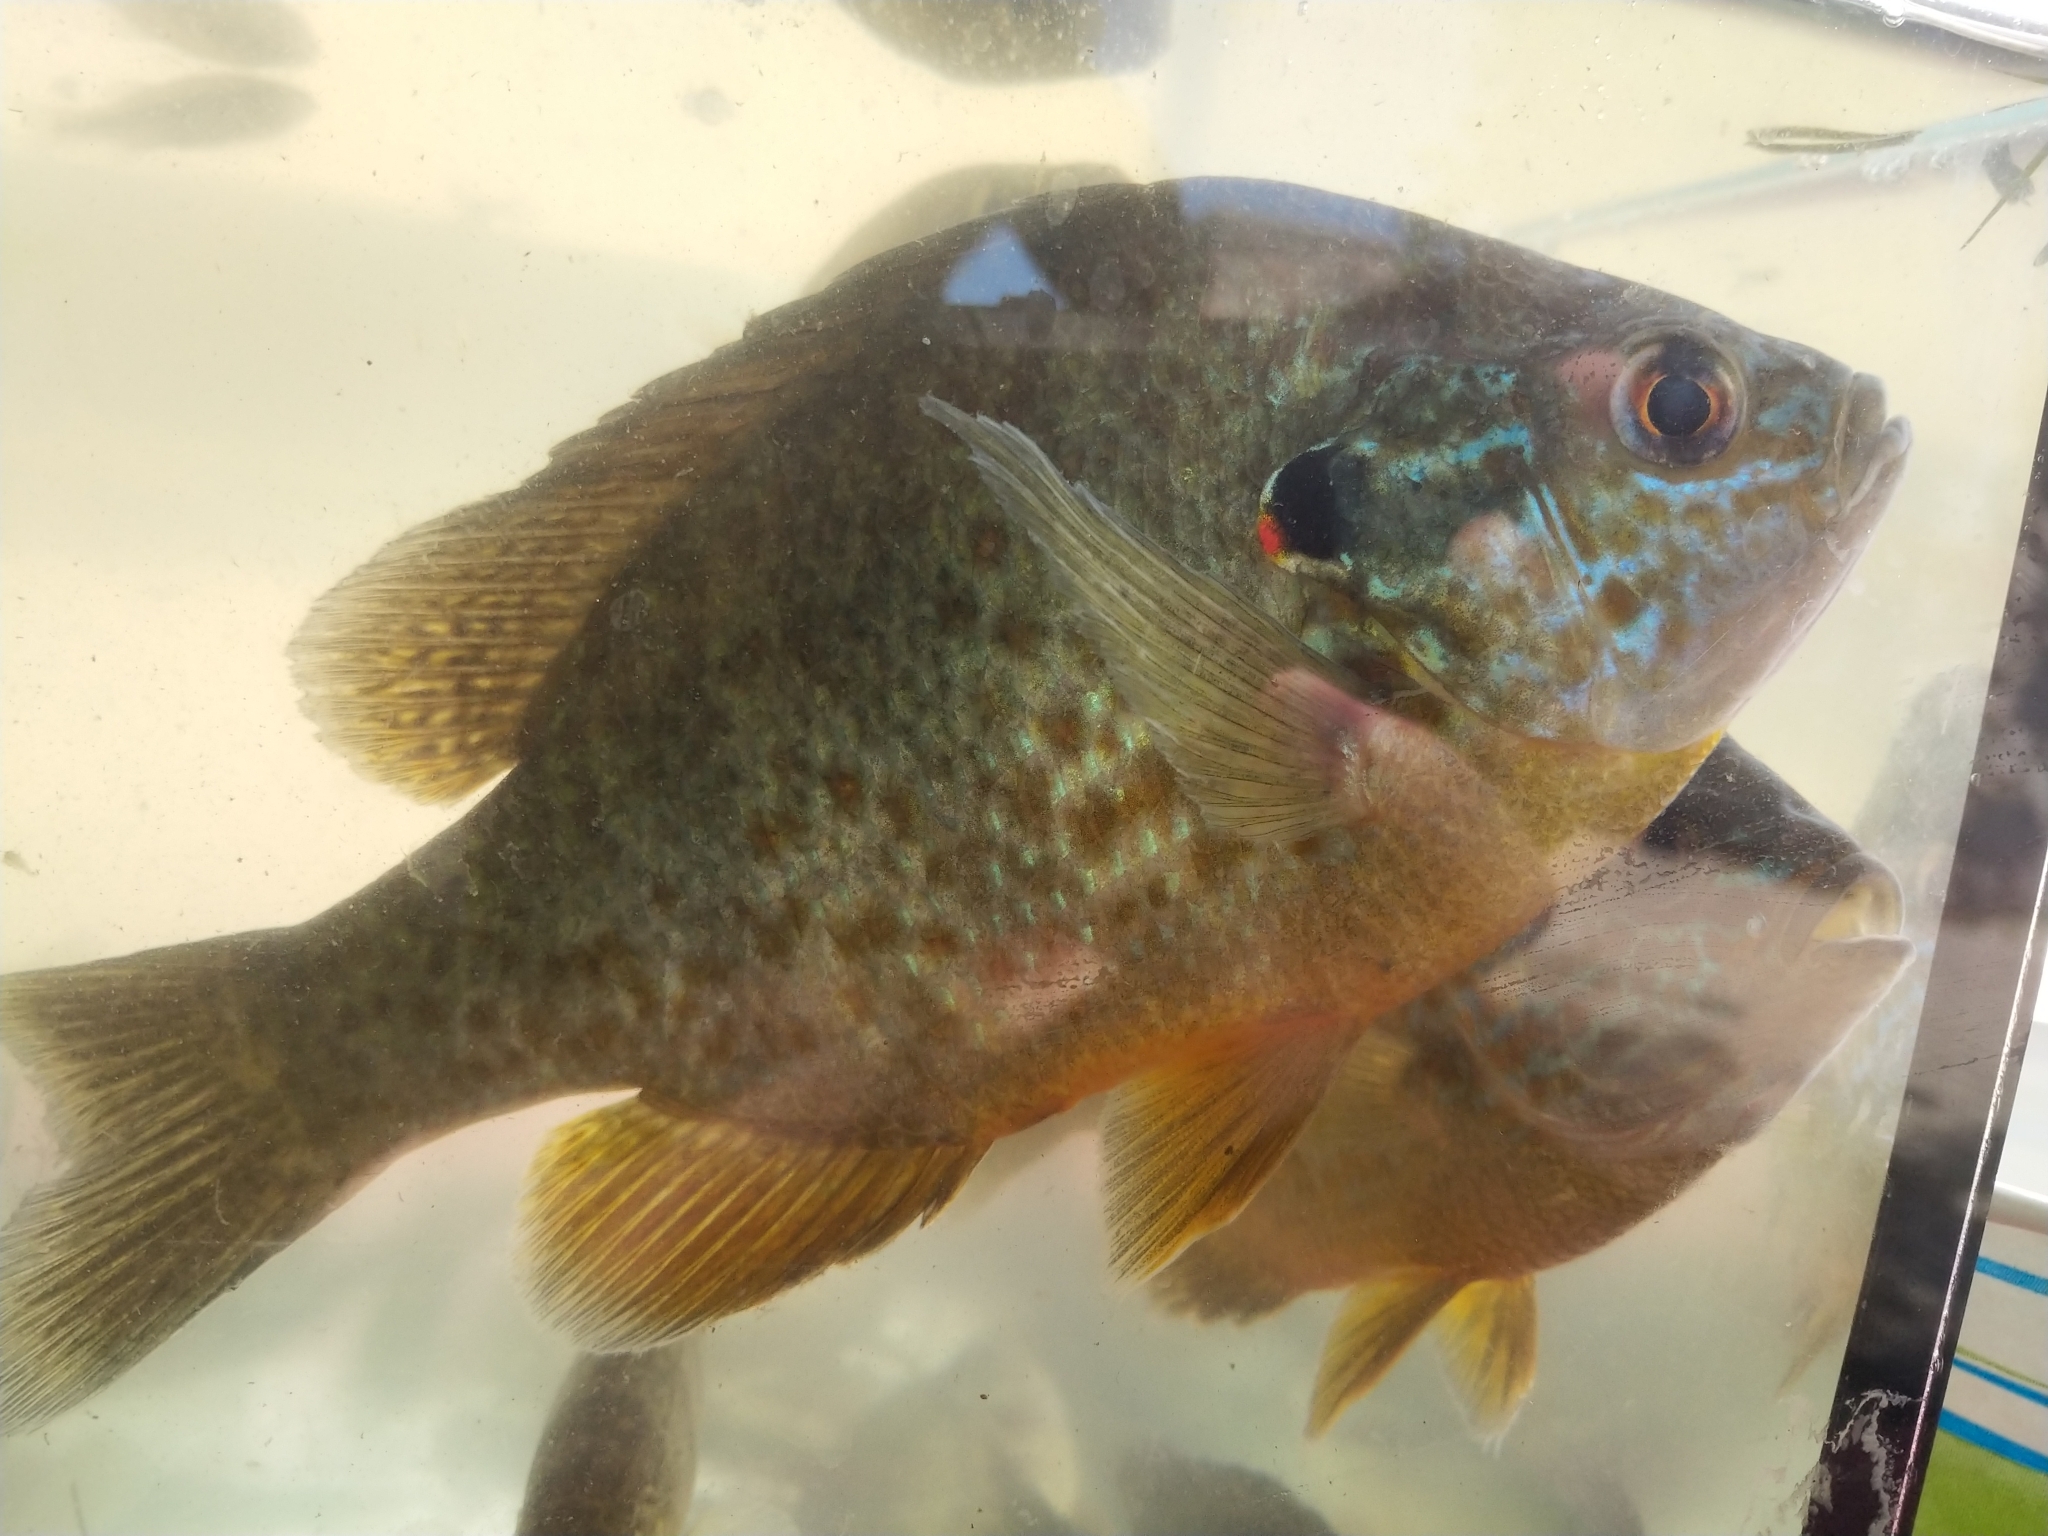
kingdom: Animalia
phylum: Chordata
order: Perciformes
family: Centrarchidae
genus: Lepomis
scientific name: Lepomis gibbosus
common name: Pumpkinseed
